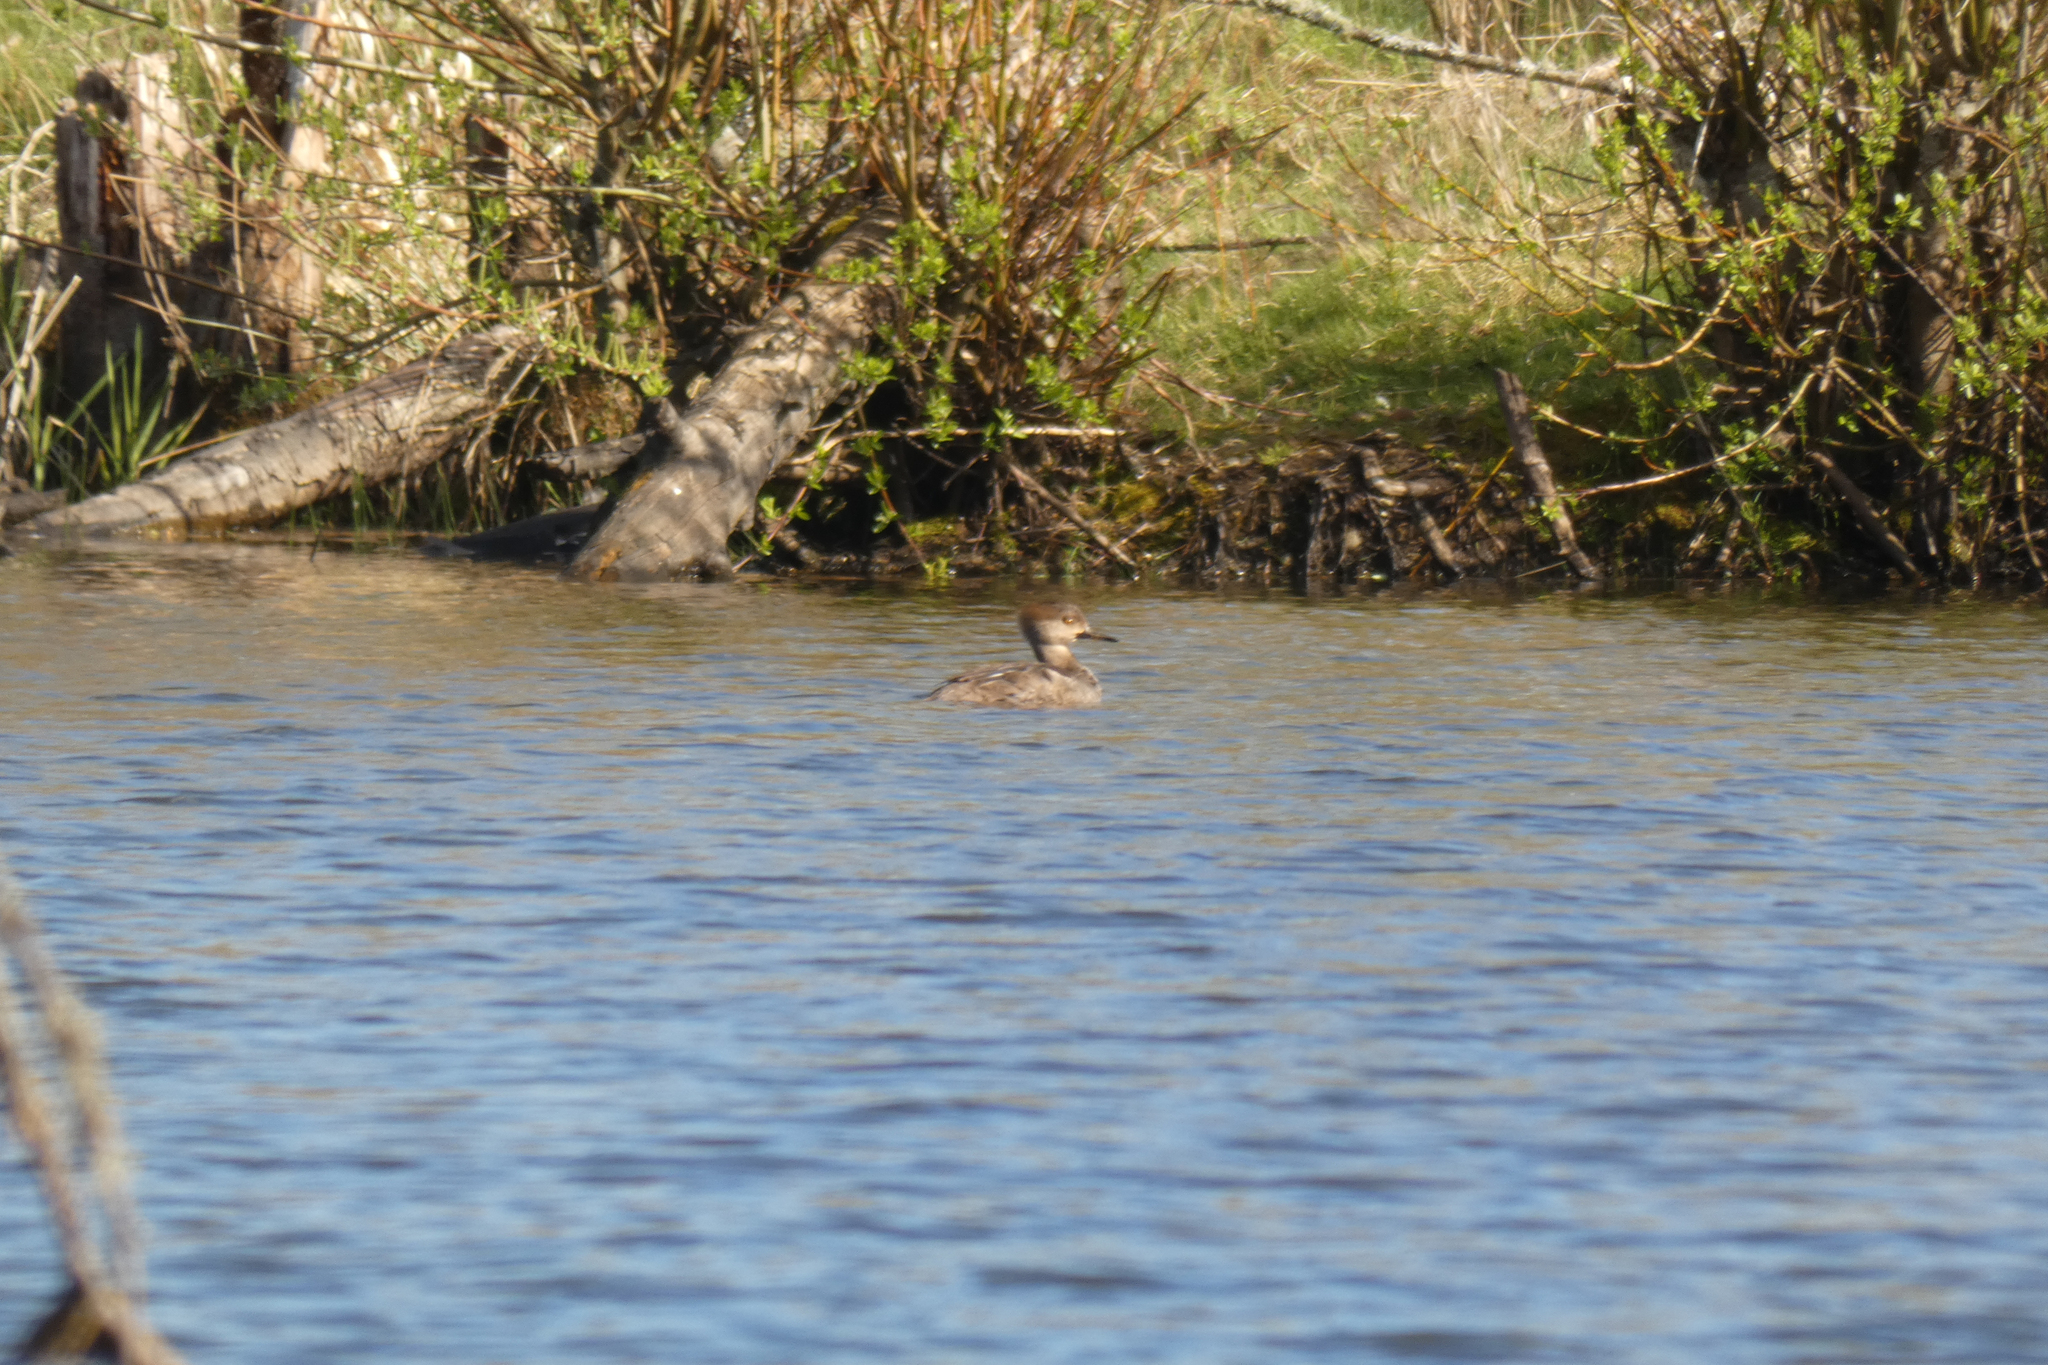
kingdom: Animalia
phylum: Chordata
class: Aves
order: Anseriformes
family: Anatidae
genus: Lophodytes
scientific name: Lophodytes cucullatus
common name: Hooded merganser
